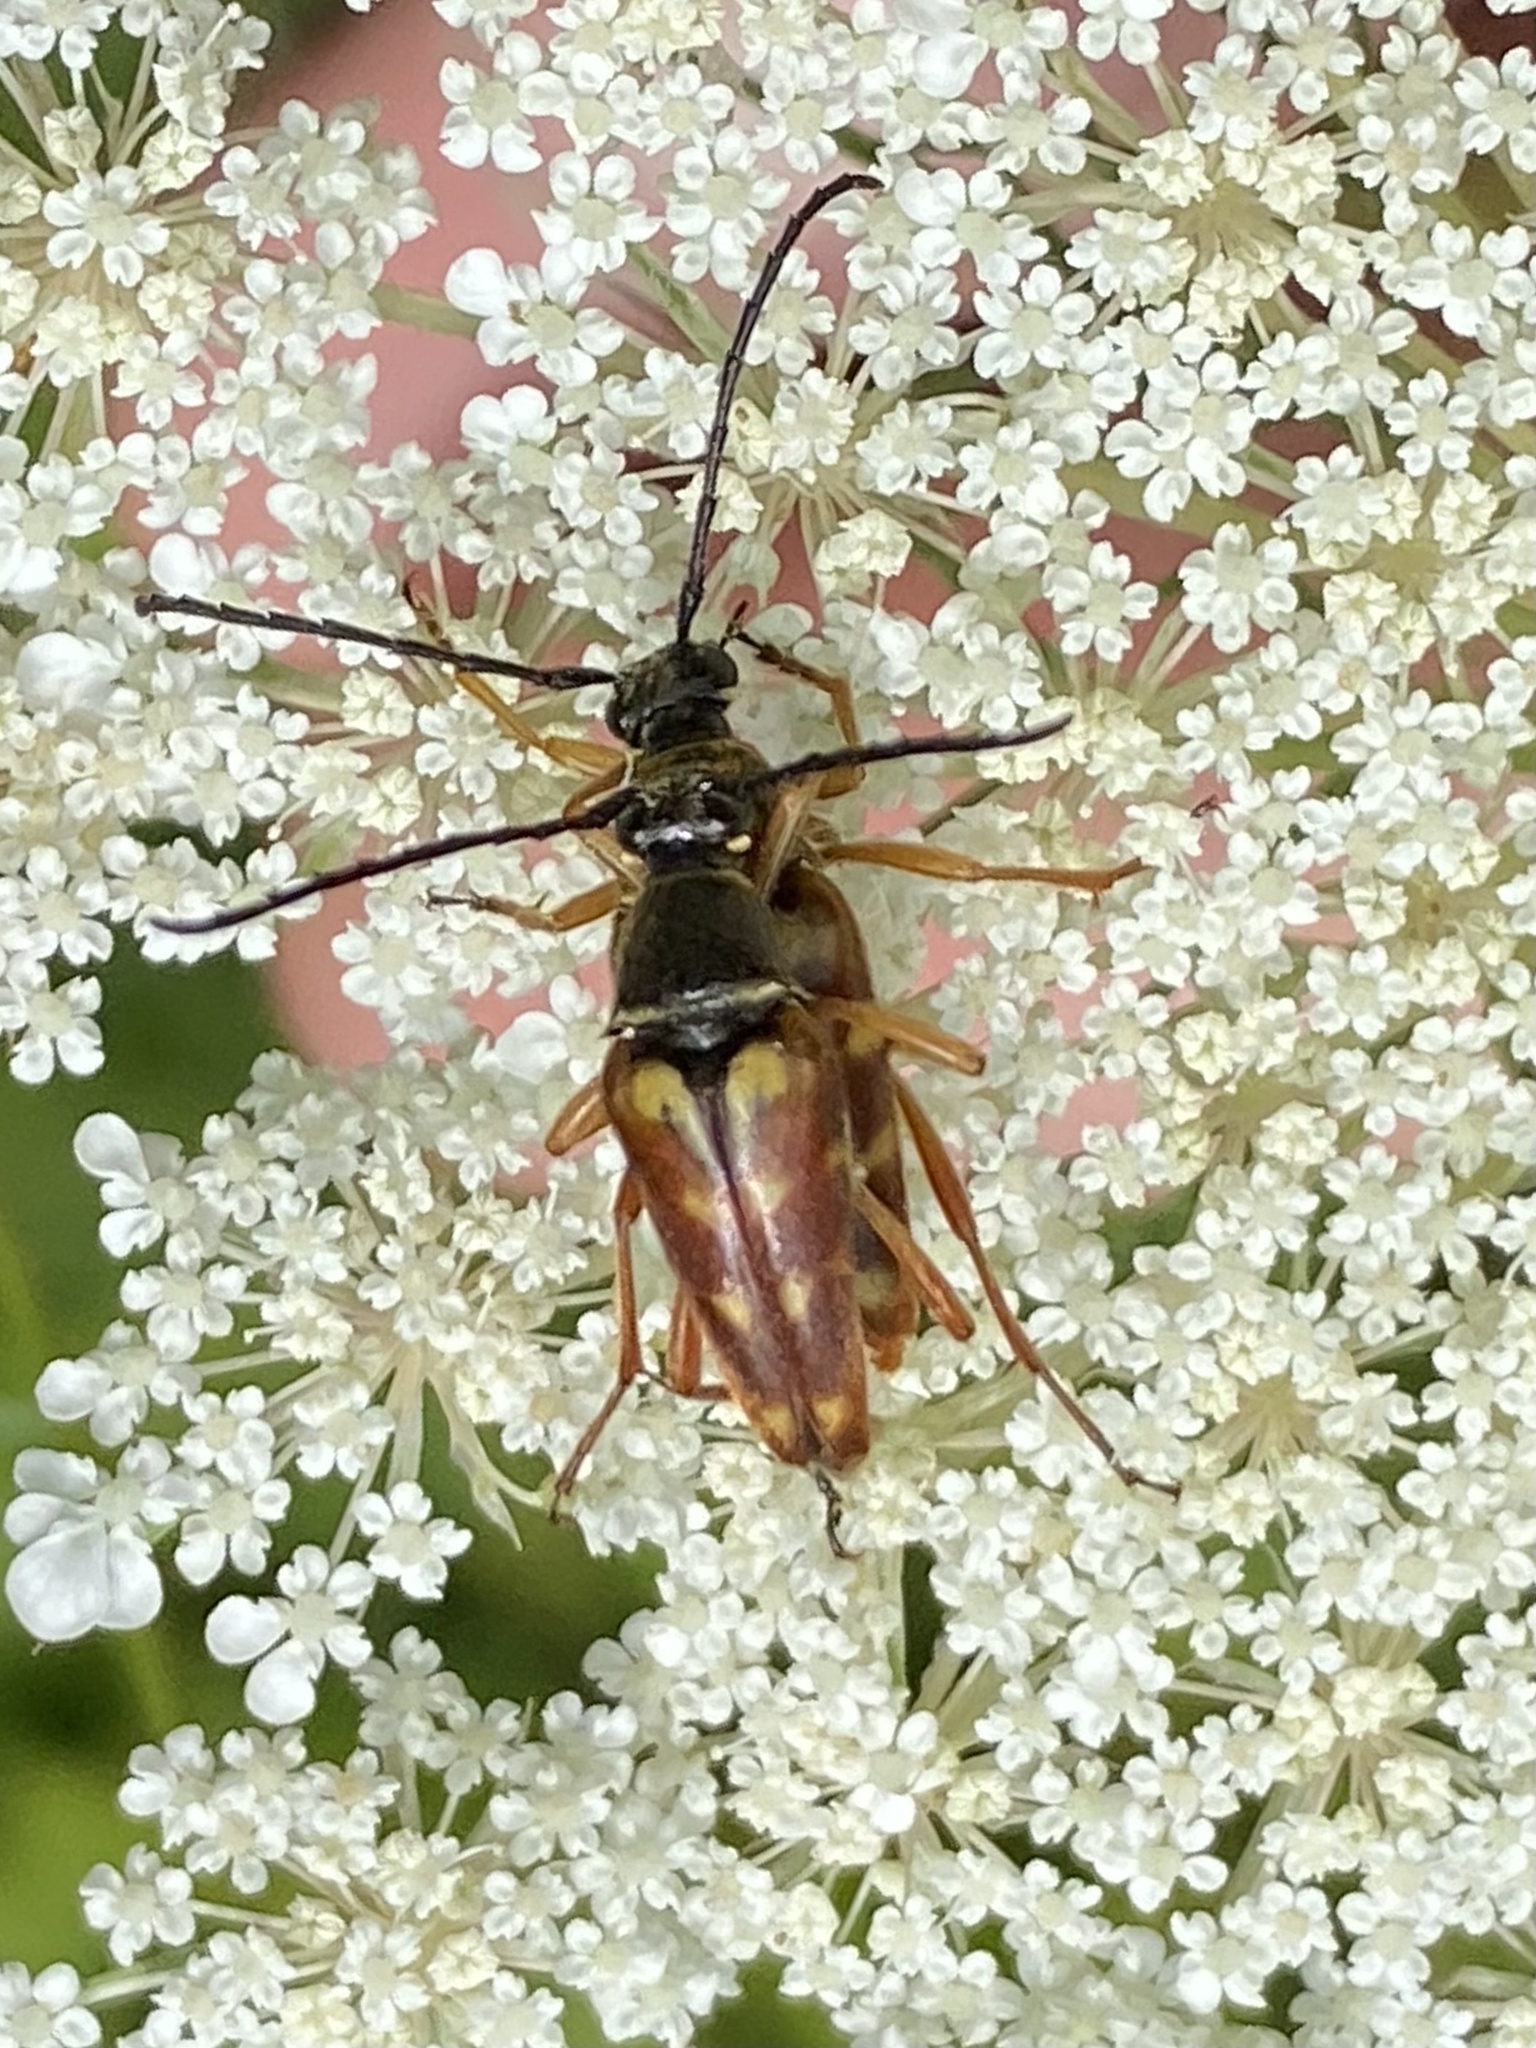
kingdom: Animalia
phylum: Arthropoda
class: Insecta
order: Coleoptera
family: Cerambycidae
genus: Typocerus
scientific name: Typocerus velutinus
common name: Banded longhorn beetle
